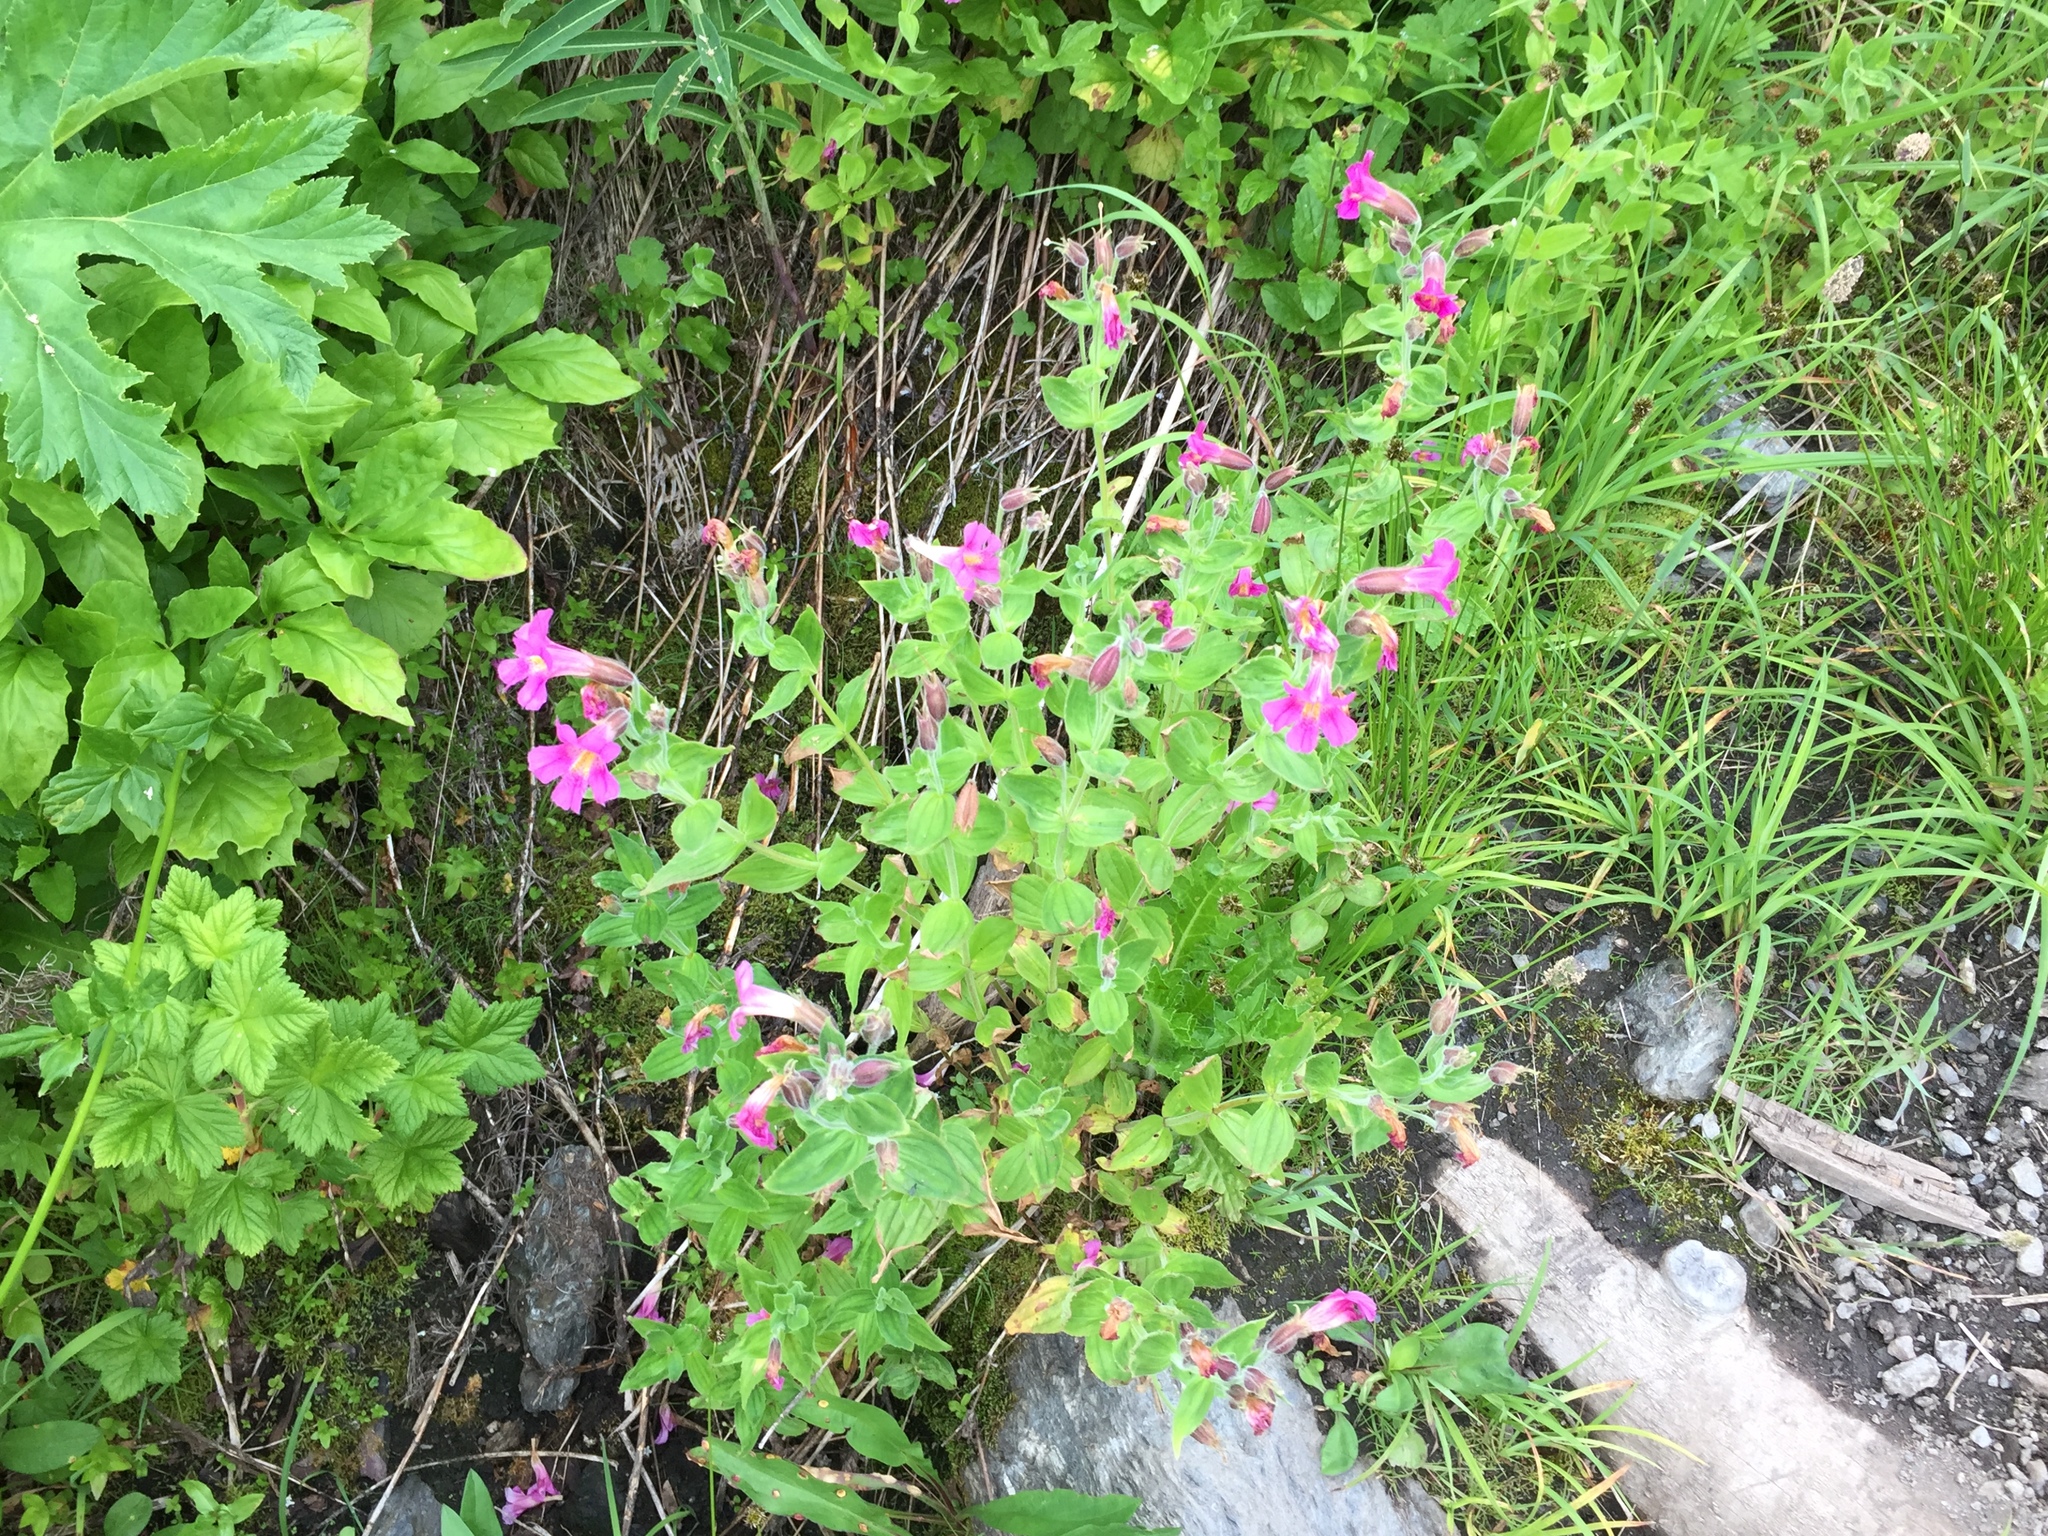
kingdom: Plantae
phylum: Tracheophyta
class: Magnoliopsida
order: Lamiales
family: Phrymaceae
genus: Erythranthe
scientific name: Erythranthe lewisii
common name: Lewis's monkey-flower
